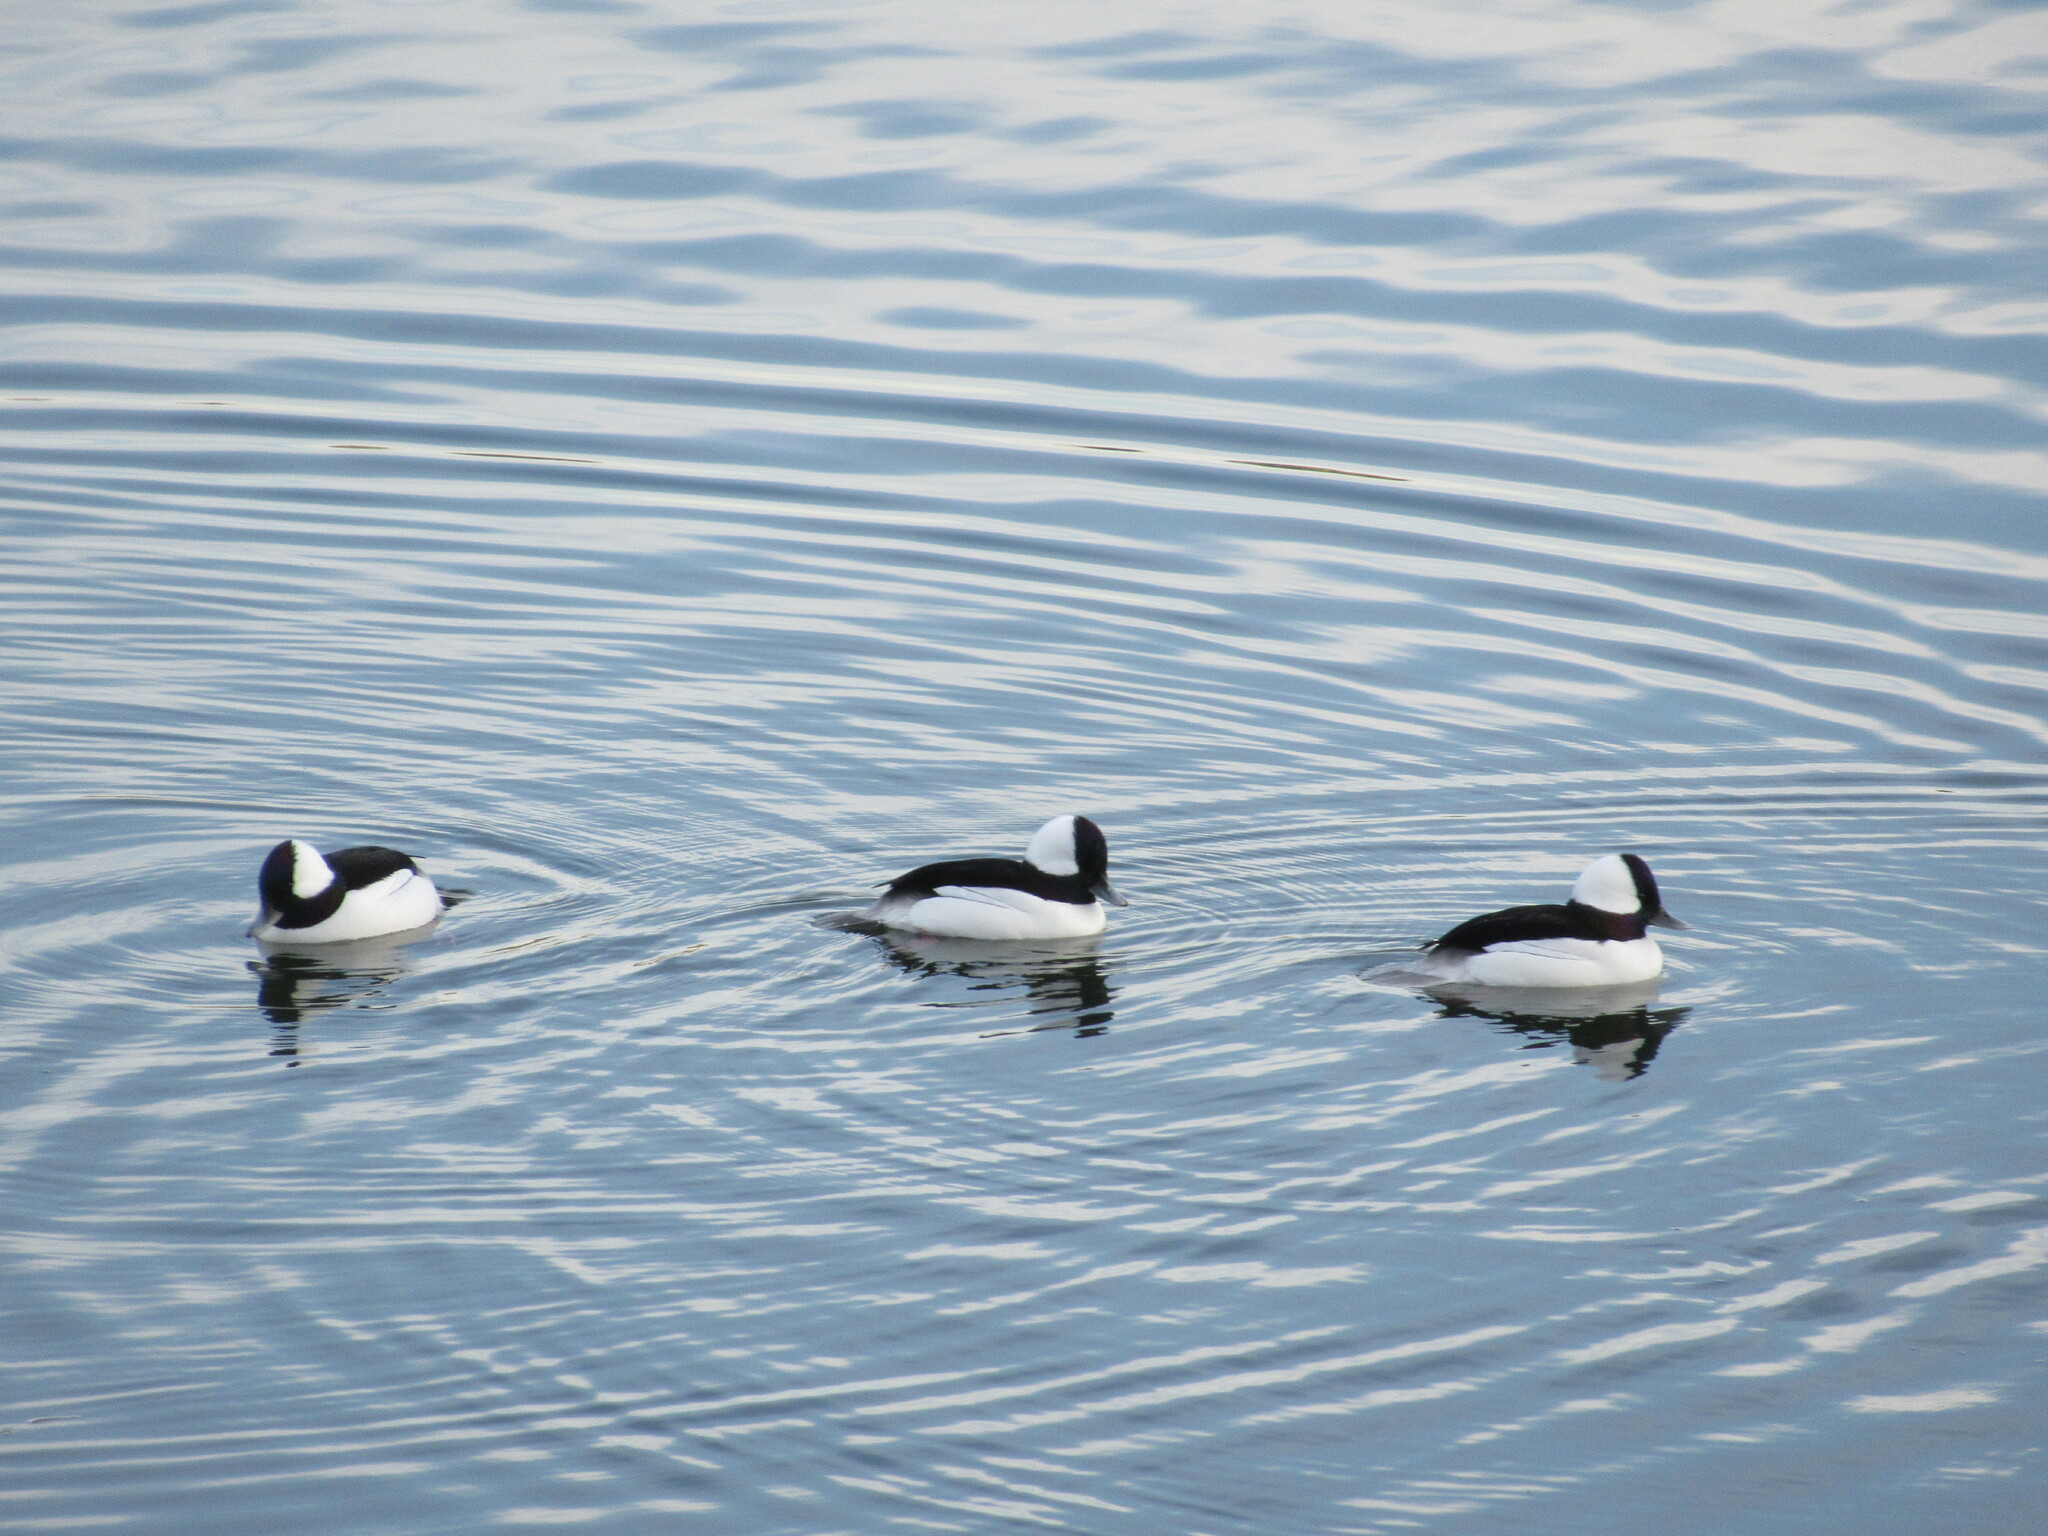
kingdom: Animalia
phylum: Chordata
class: Aves
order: Anseriformes
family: Anatidae
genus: Bucephala
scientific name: Bucephala albeola
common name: Bufflehead
